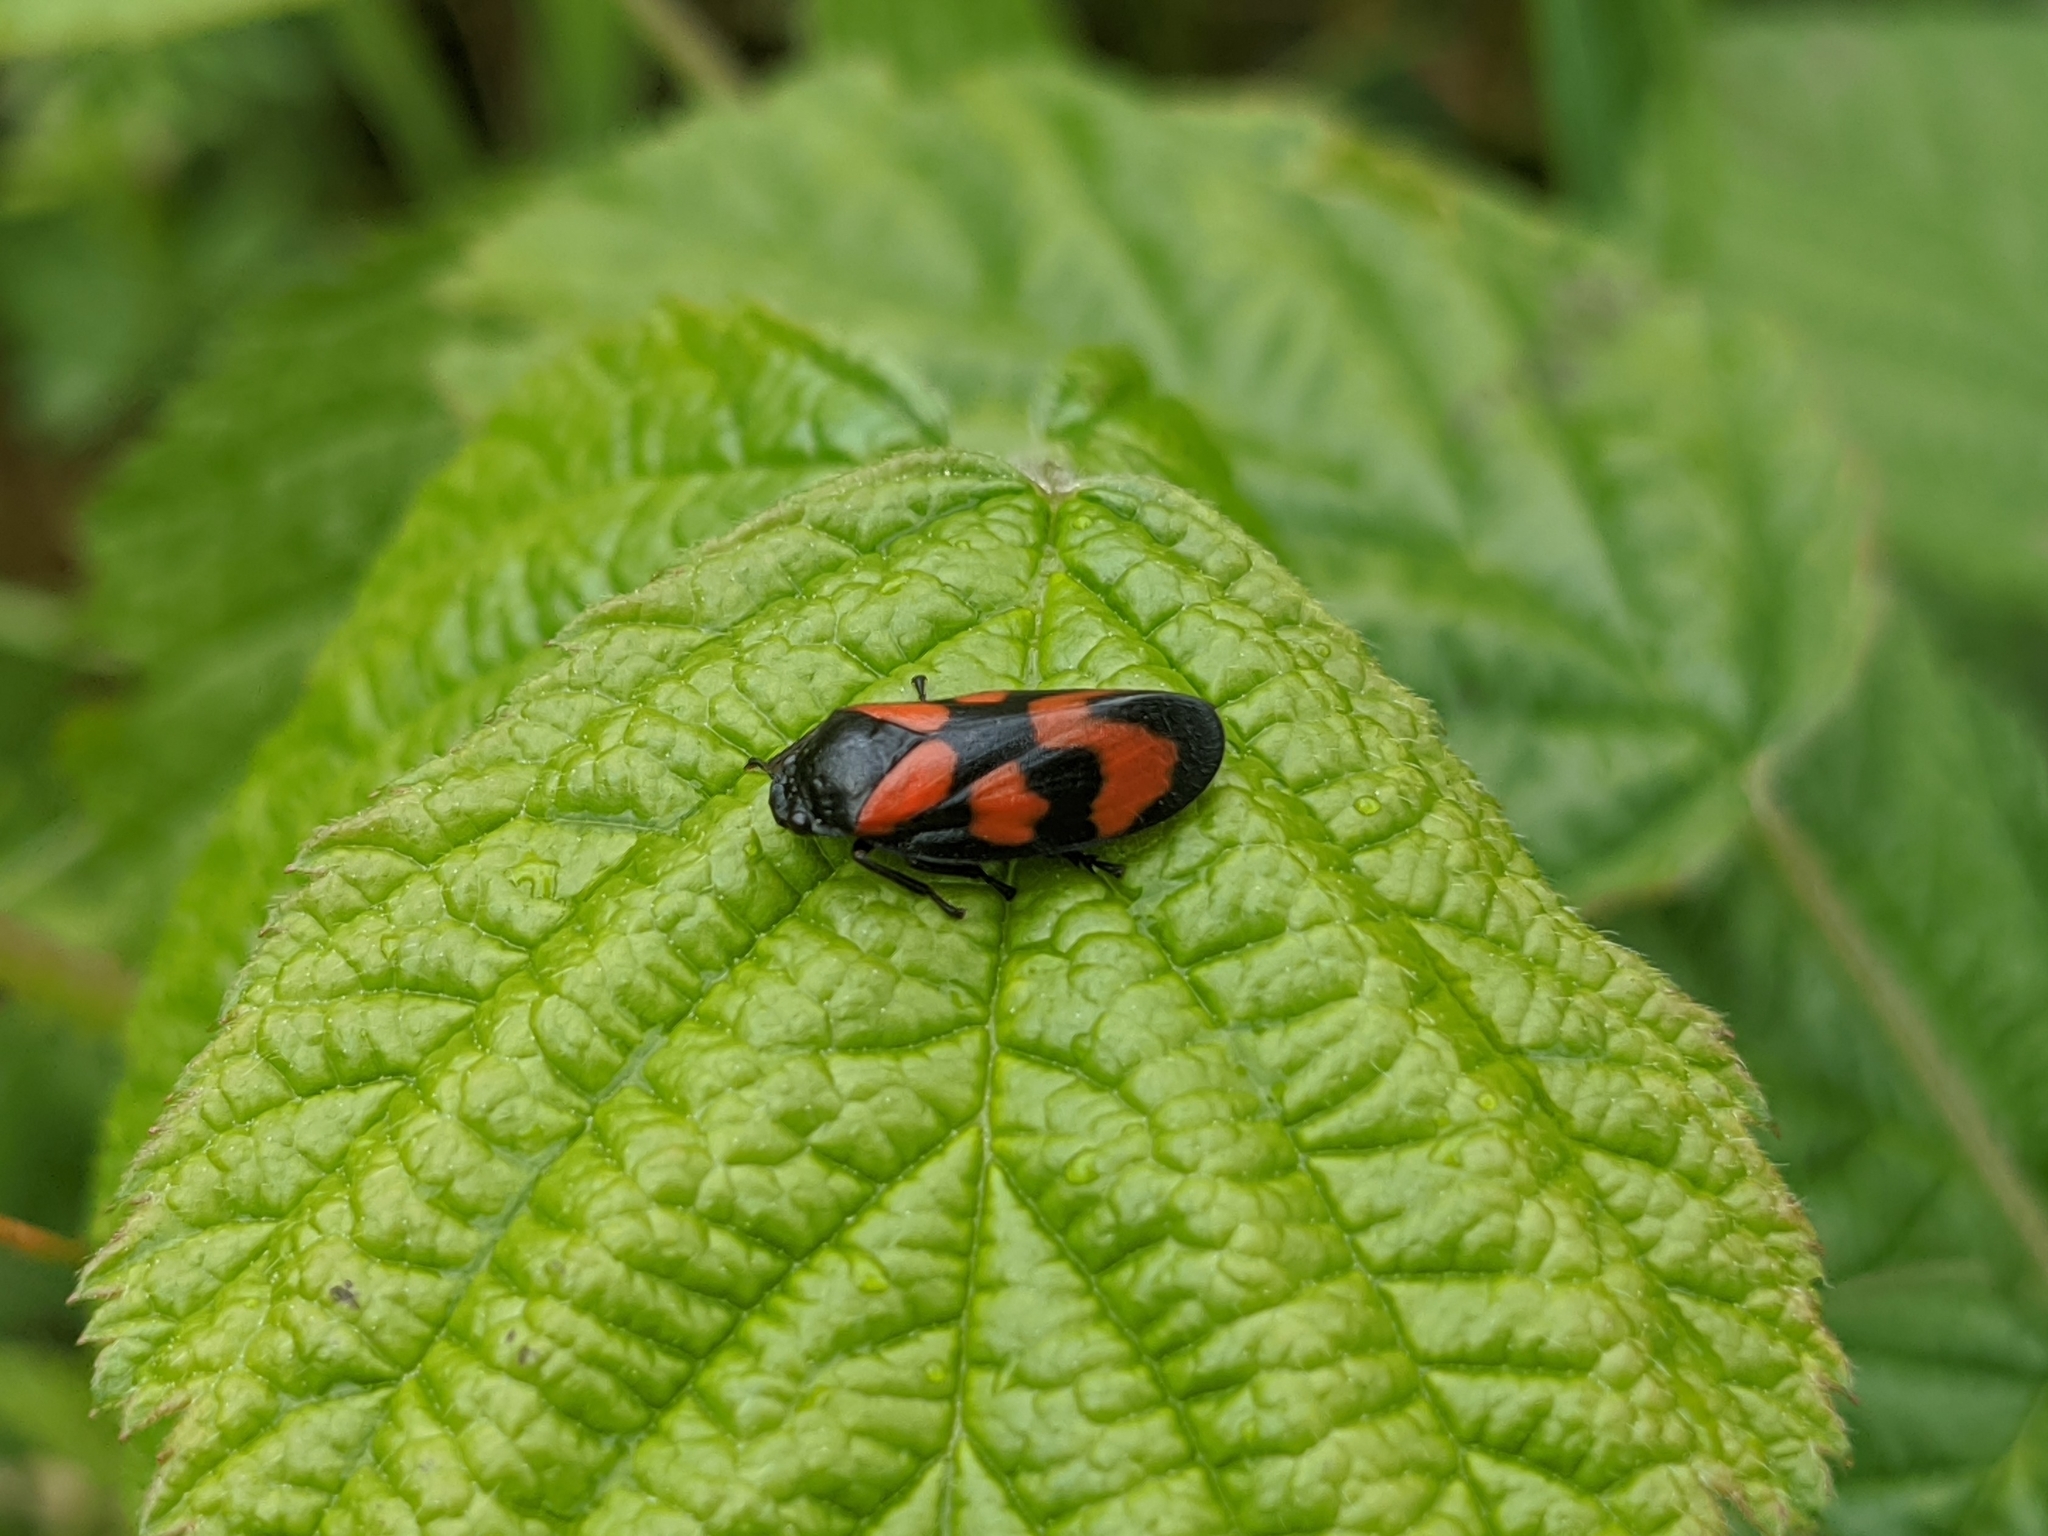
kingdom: Animalia
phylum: Arthropoda
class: Insecta
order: Hemiptera
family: Cercopidae
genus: Cercopis
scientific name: Cercopis vulnerata
